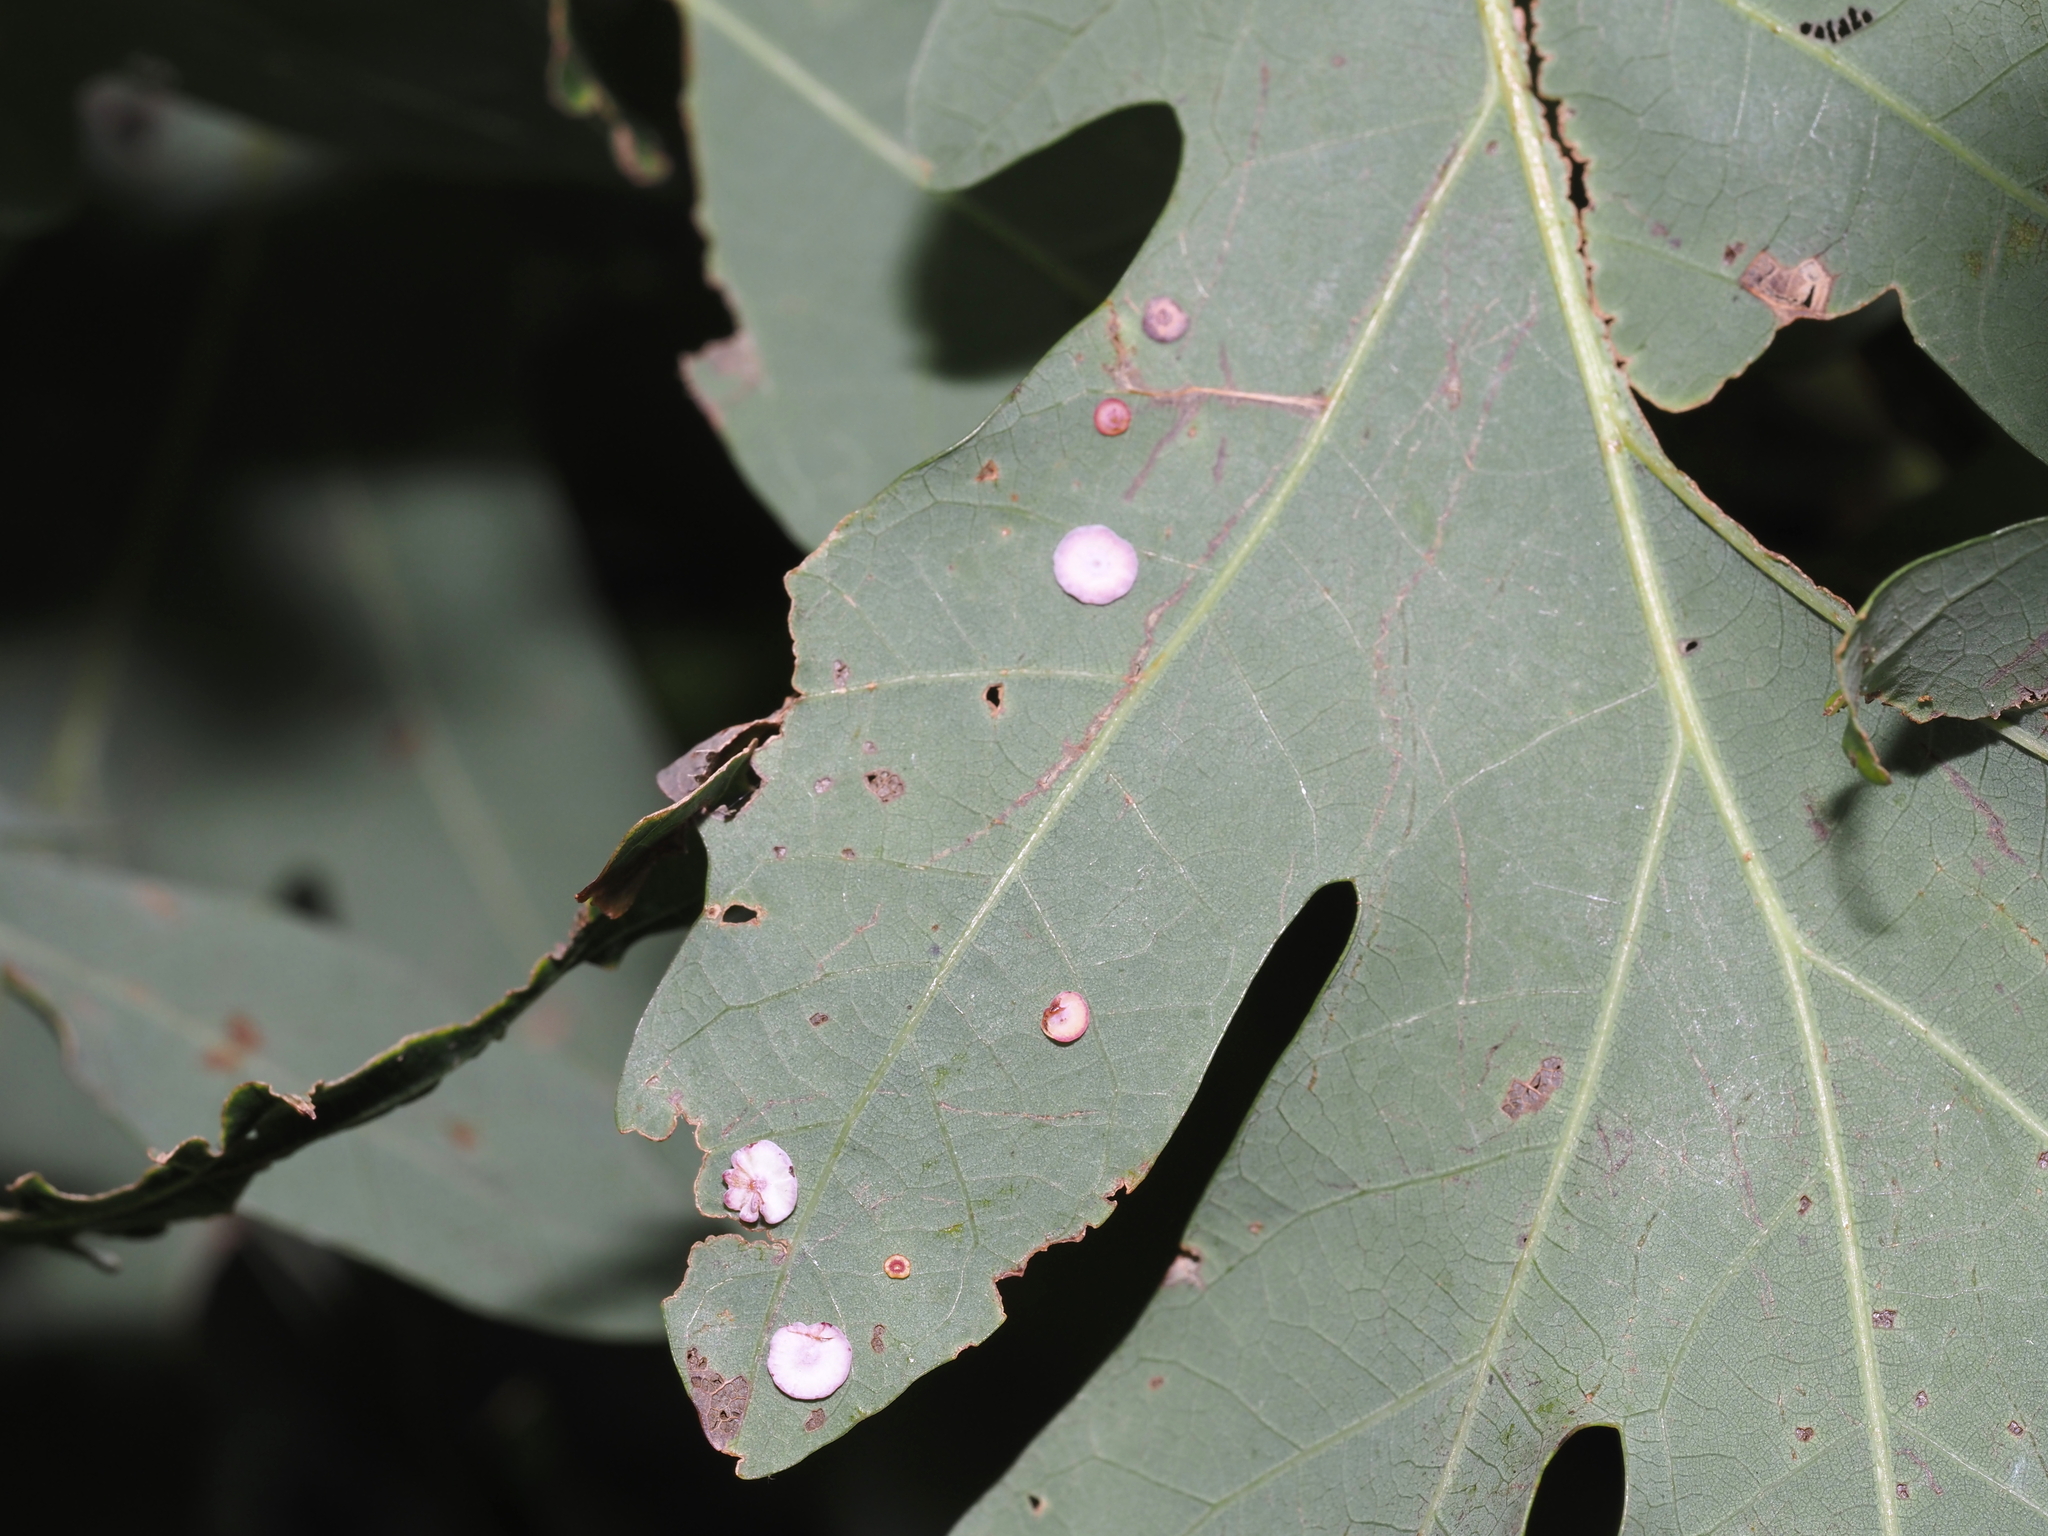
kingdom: Animalia
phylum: Arthropoda
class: Insecta
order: Hymenoptera
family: Cynipidae
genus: Phylloteras
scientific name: Phylloteras poculum
